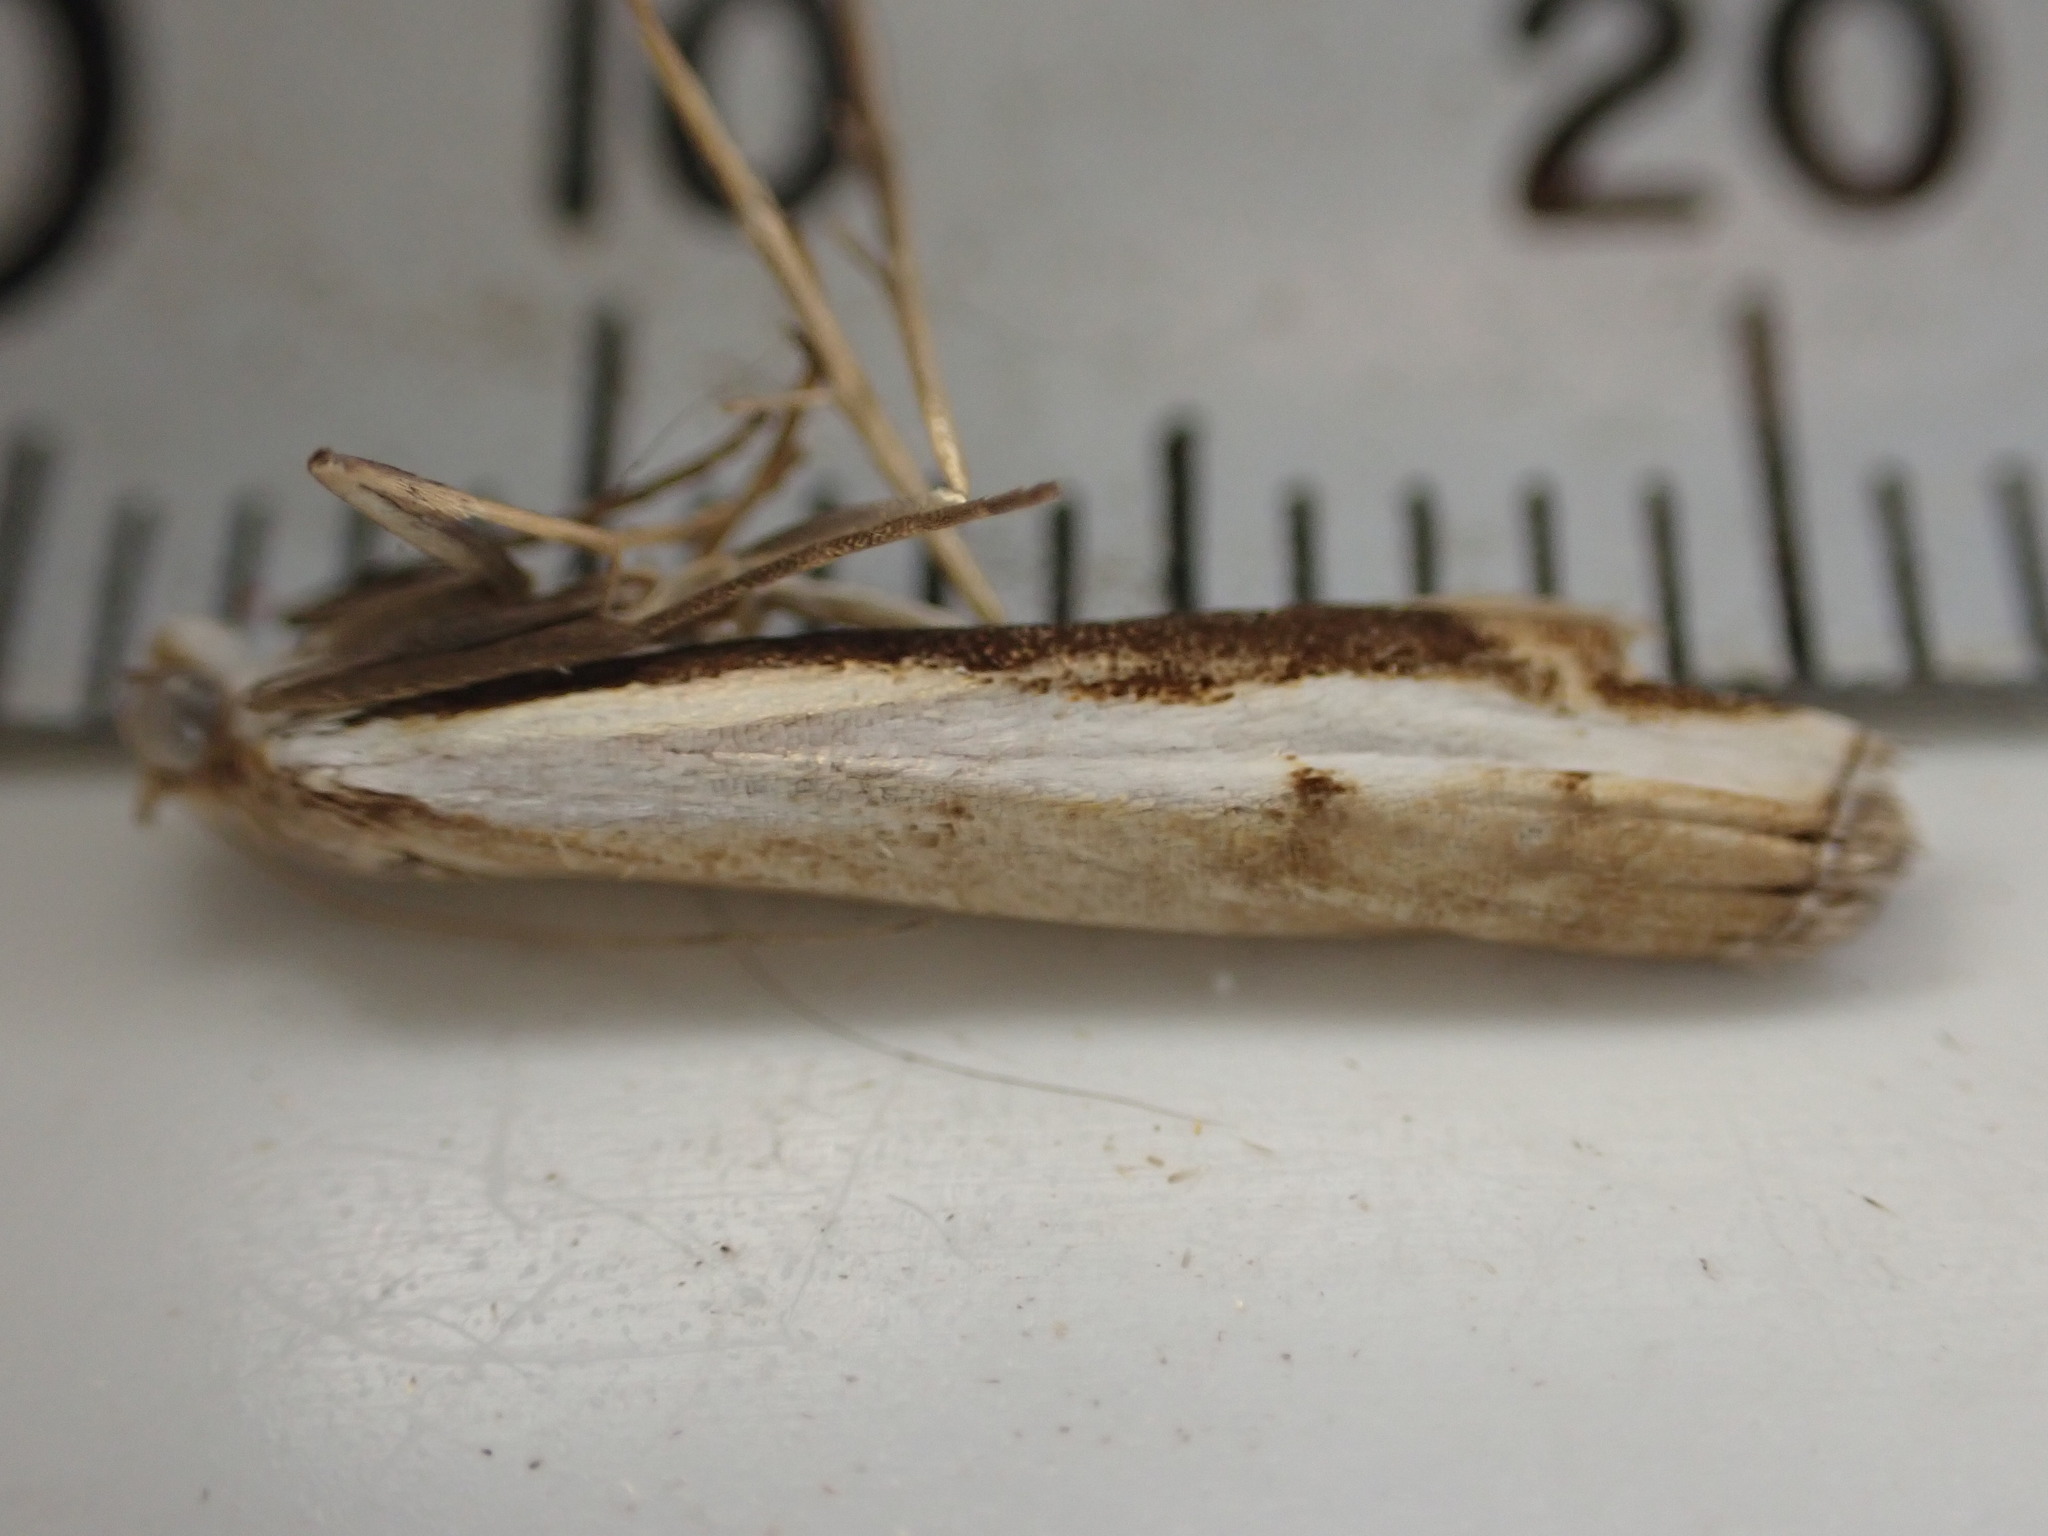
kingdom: Animalia
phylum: Arthropoda
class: Insecta
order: Lepidoptera
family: Crambidae
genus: Orocrambus
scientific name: Orocrambus flexuosellus
